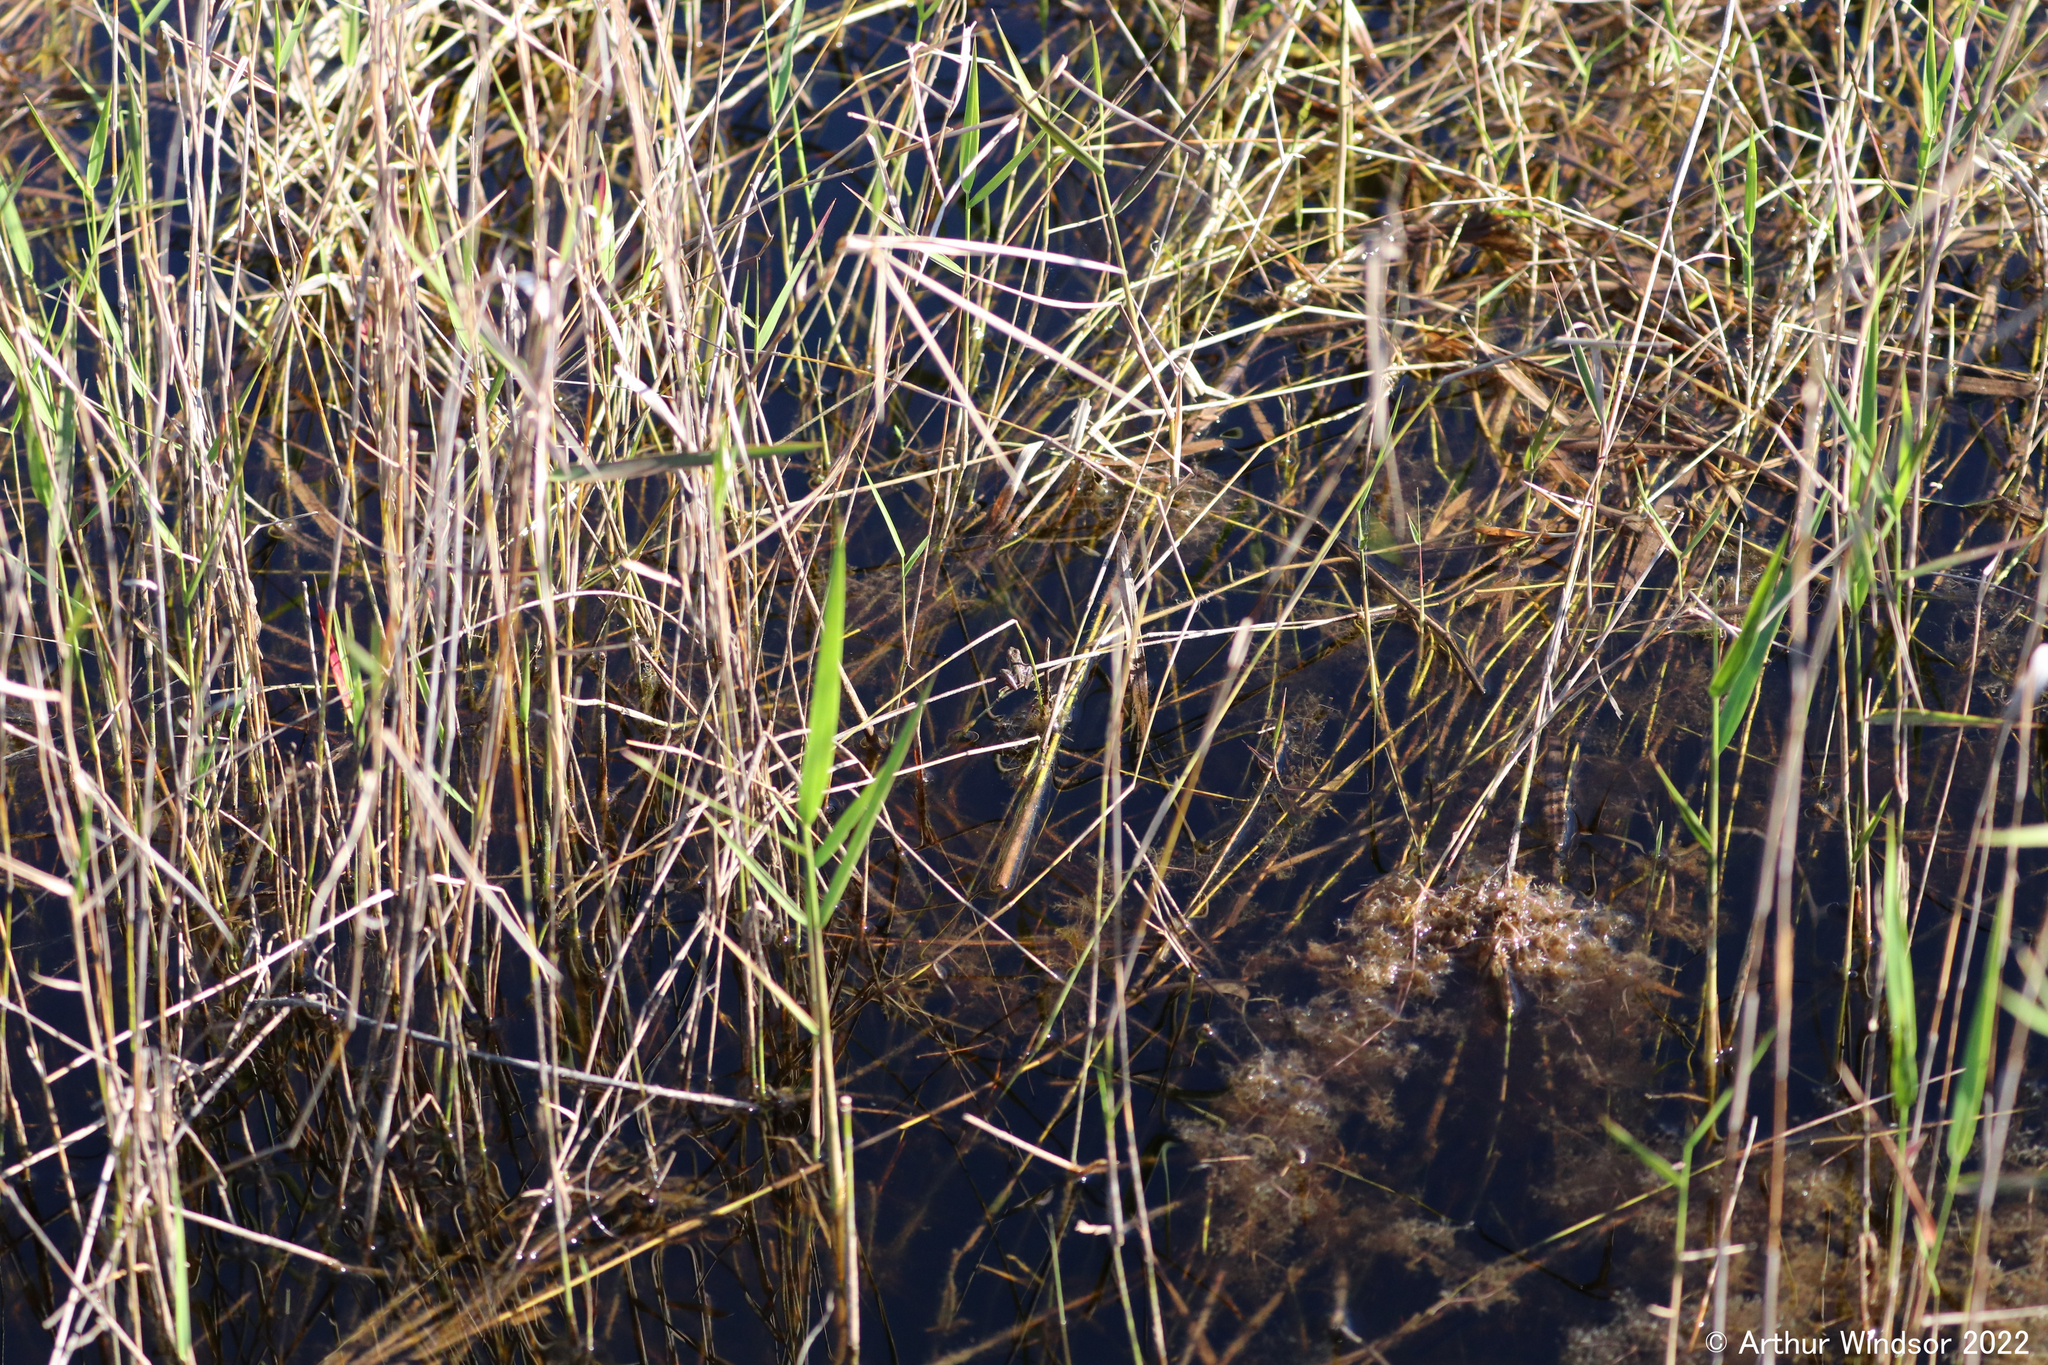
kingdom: Animalia
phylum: Chordata
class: Amphibia
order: Anura
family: Hylidae
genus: Acris
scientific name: Acris gryllus
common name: Southern cricket frog
